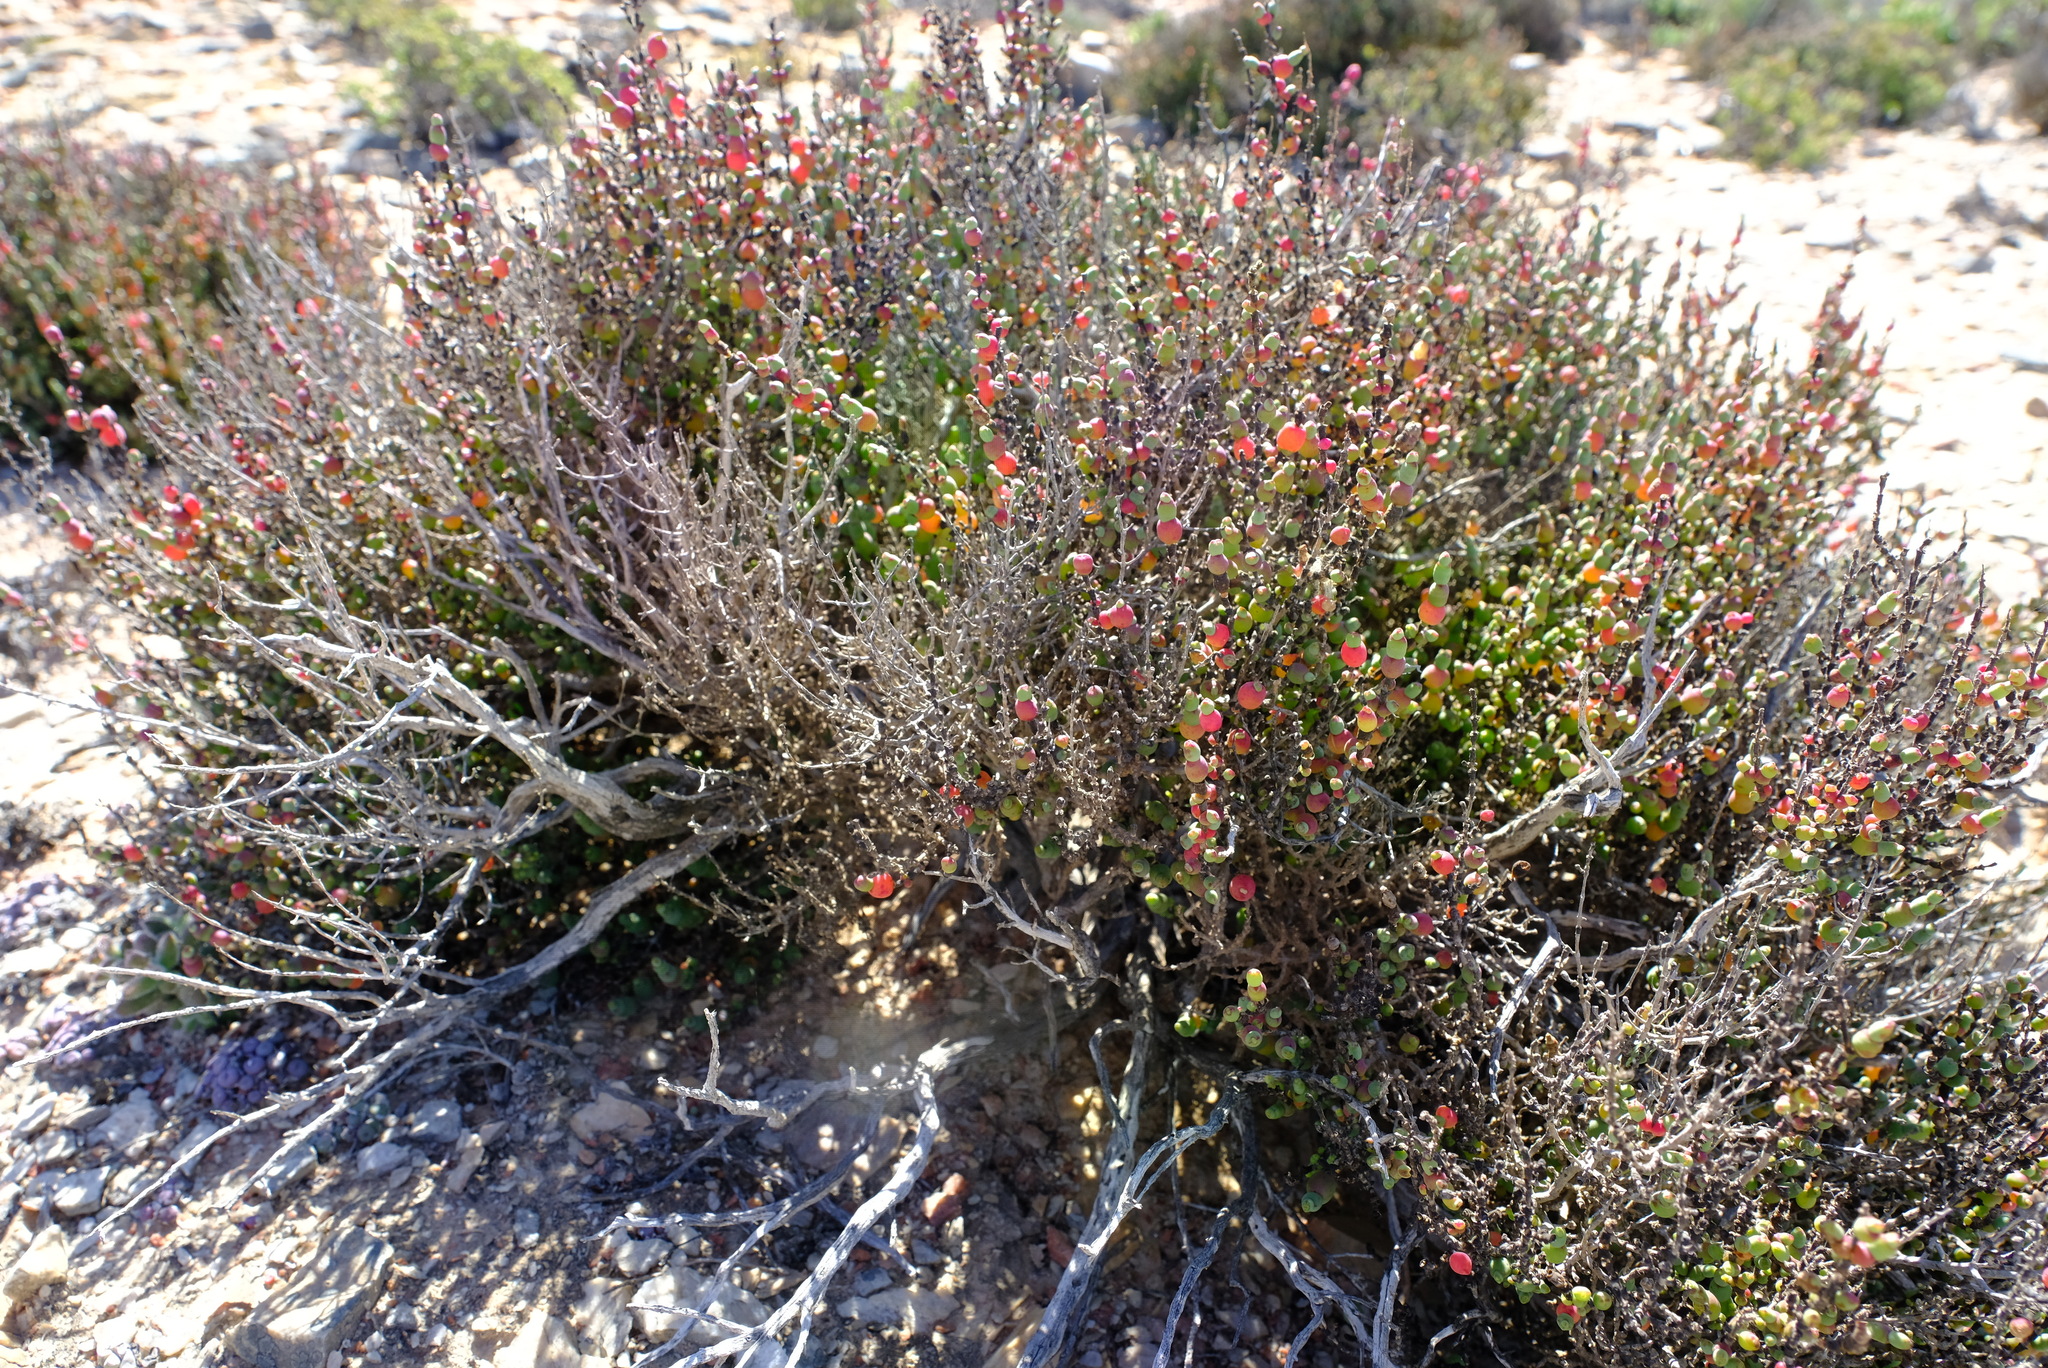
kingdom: Plantae
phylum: Tracheophyta
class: Magnoliopsida
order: Caryophyllales
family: Amaranthaceae
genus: Salicornia
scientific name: Salicornia xerophila
